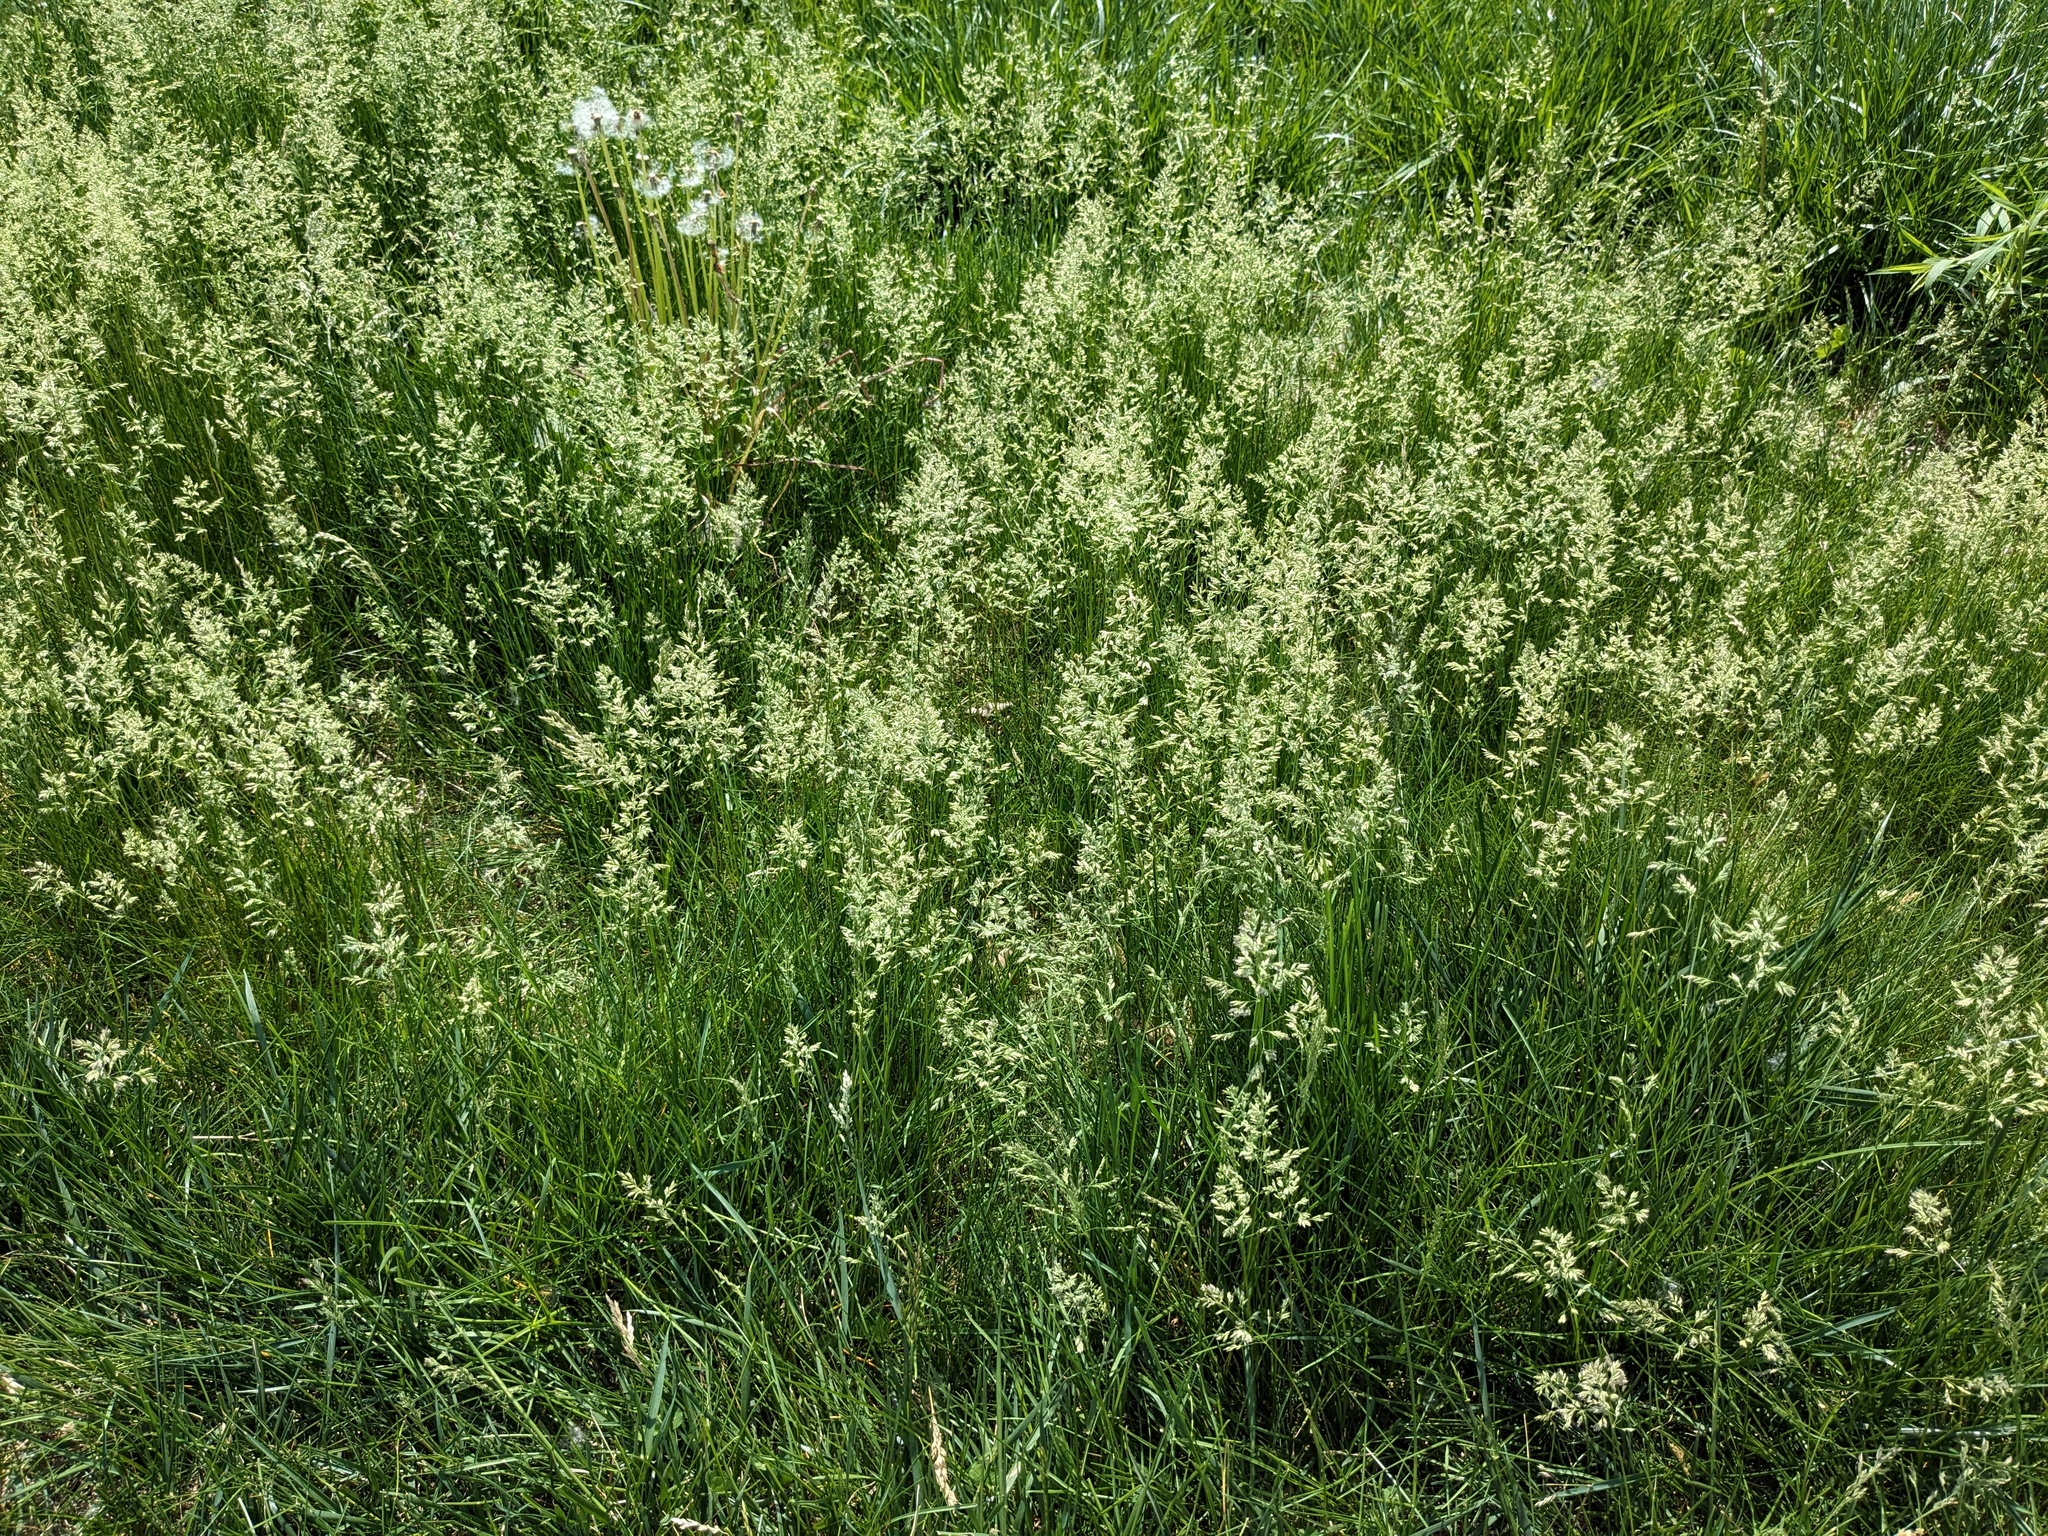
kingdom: Plantae
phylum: Tracheophyta
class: Liliopsida
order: Poales
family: Poaceae
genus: Poa
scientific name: Poa pratensis
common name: Kentucky bluegrass
